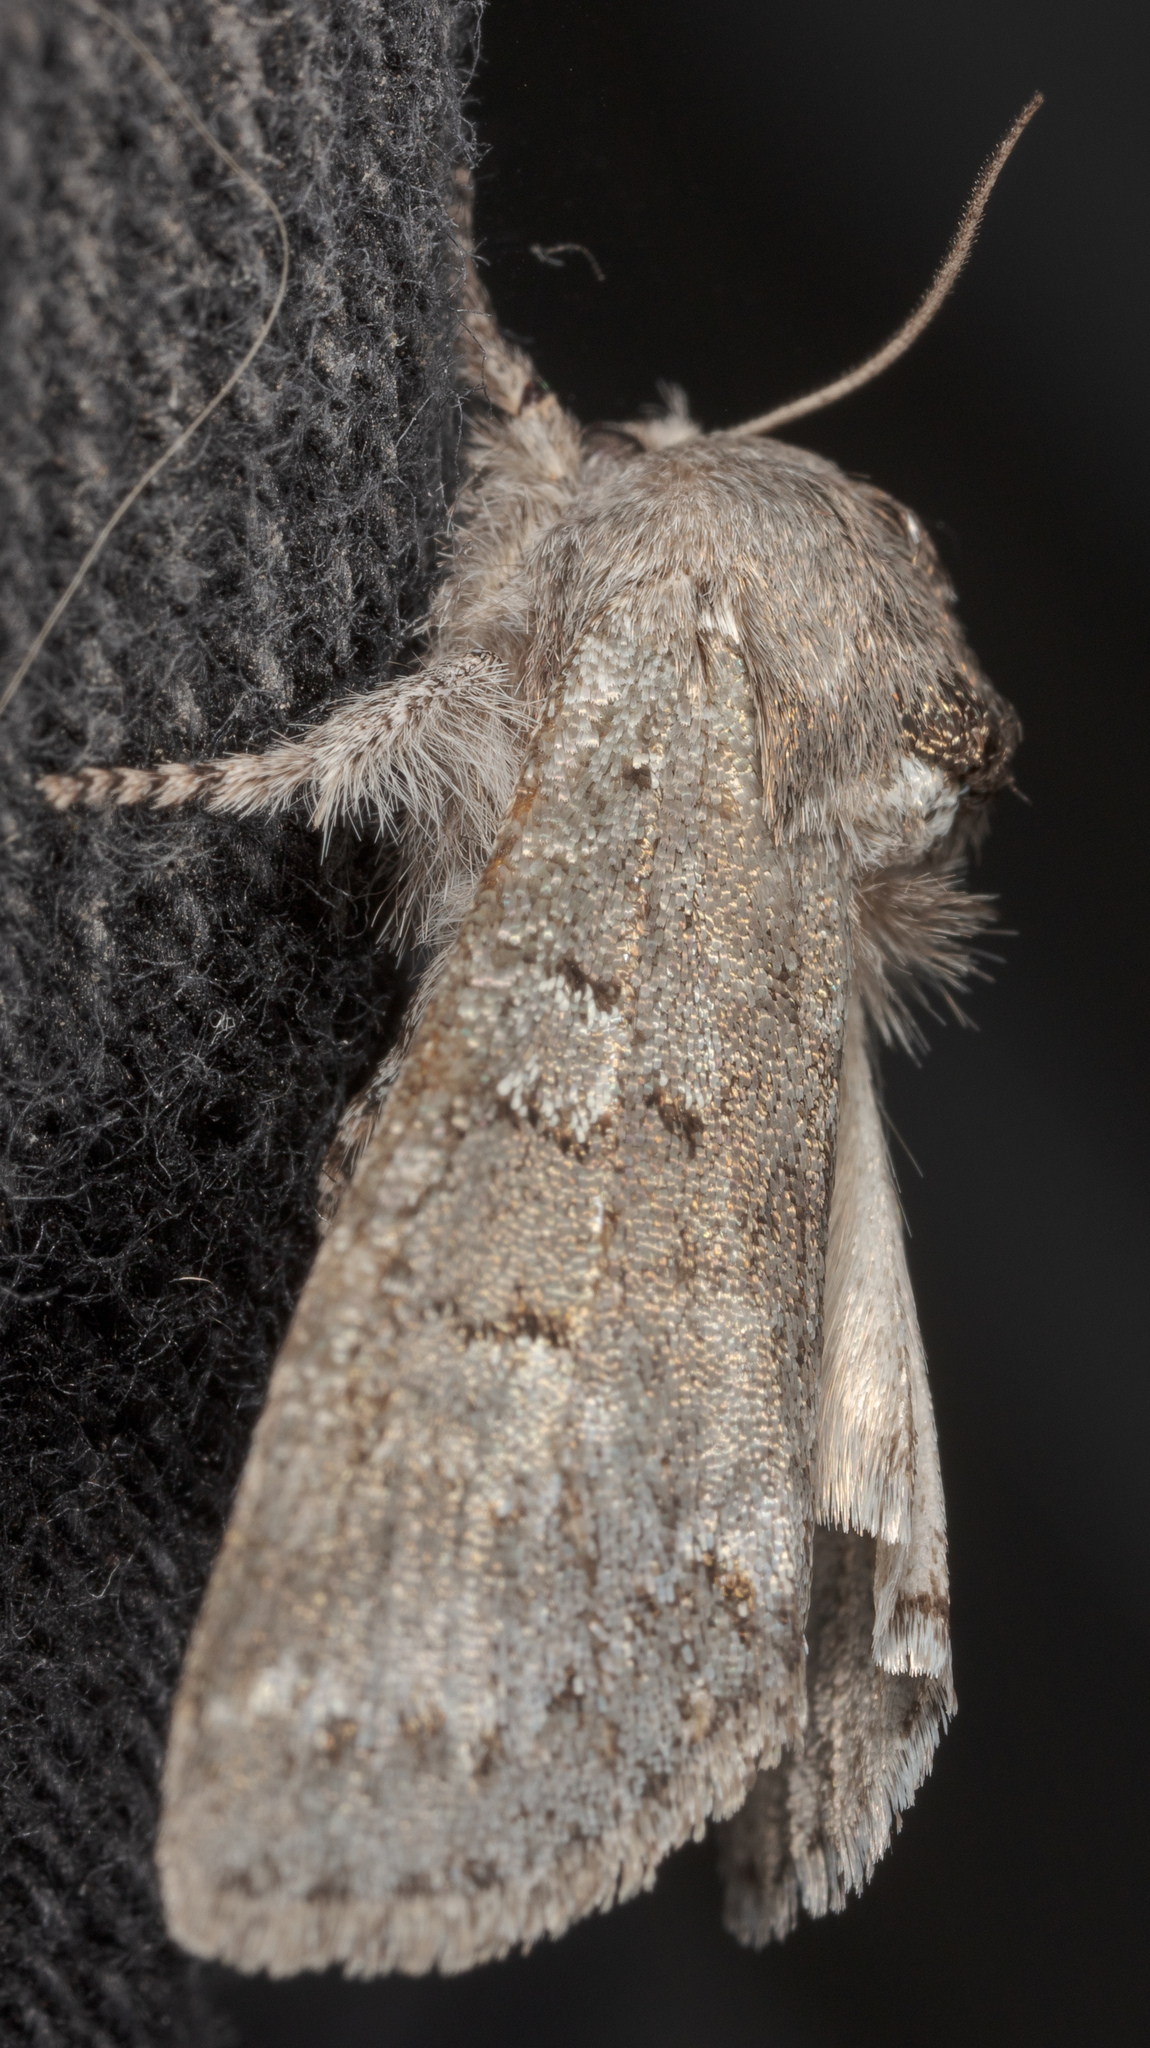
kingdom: Animalia
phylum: Arthropoda
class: Insecta
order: Lepidoptera
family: Noctuidae
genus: Psaphida
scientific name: Psaphida rolandi
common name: Roland's sallow
